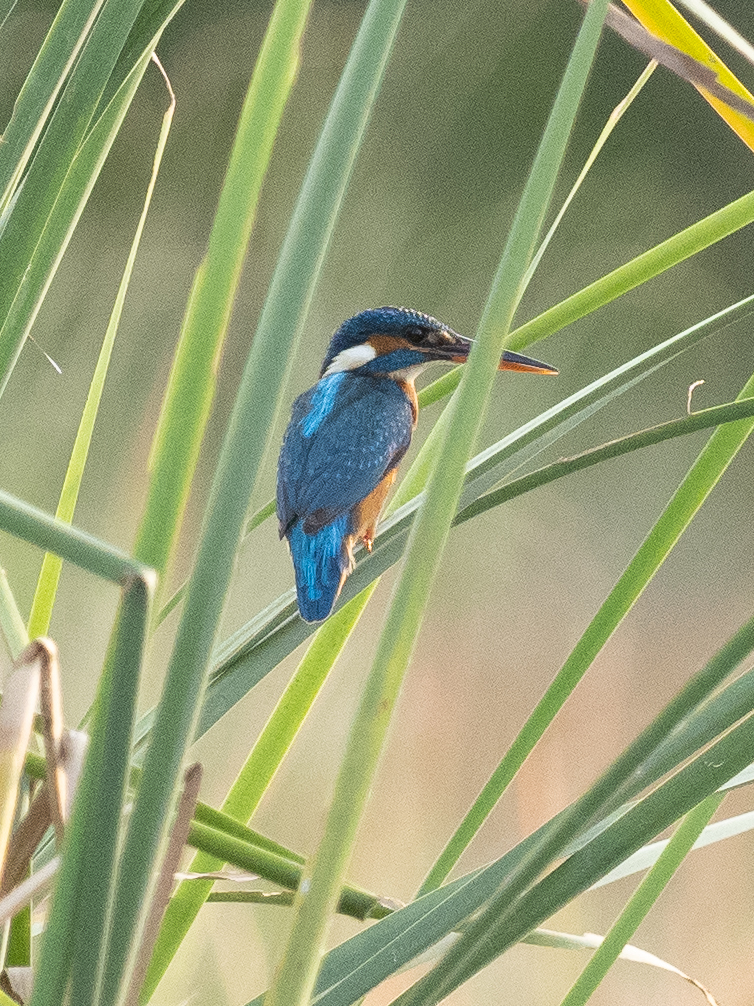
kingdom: Animalia
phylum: Chordata
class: Aves
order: Coraciiformes
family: Alcedinidae
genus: Alcedo
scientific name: Alcedo atthis
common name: Common kingfisher
